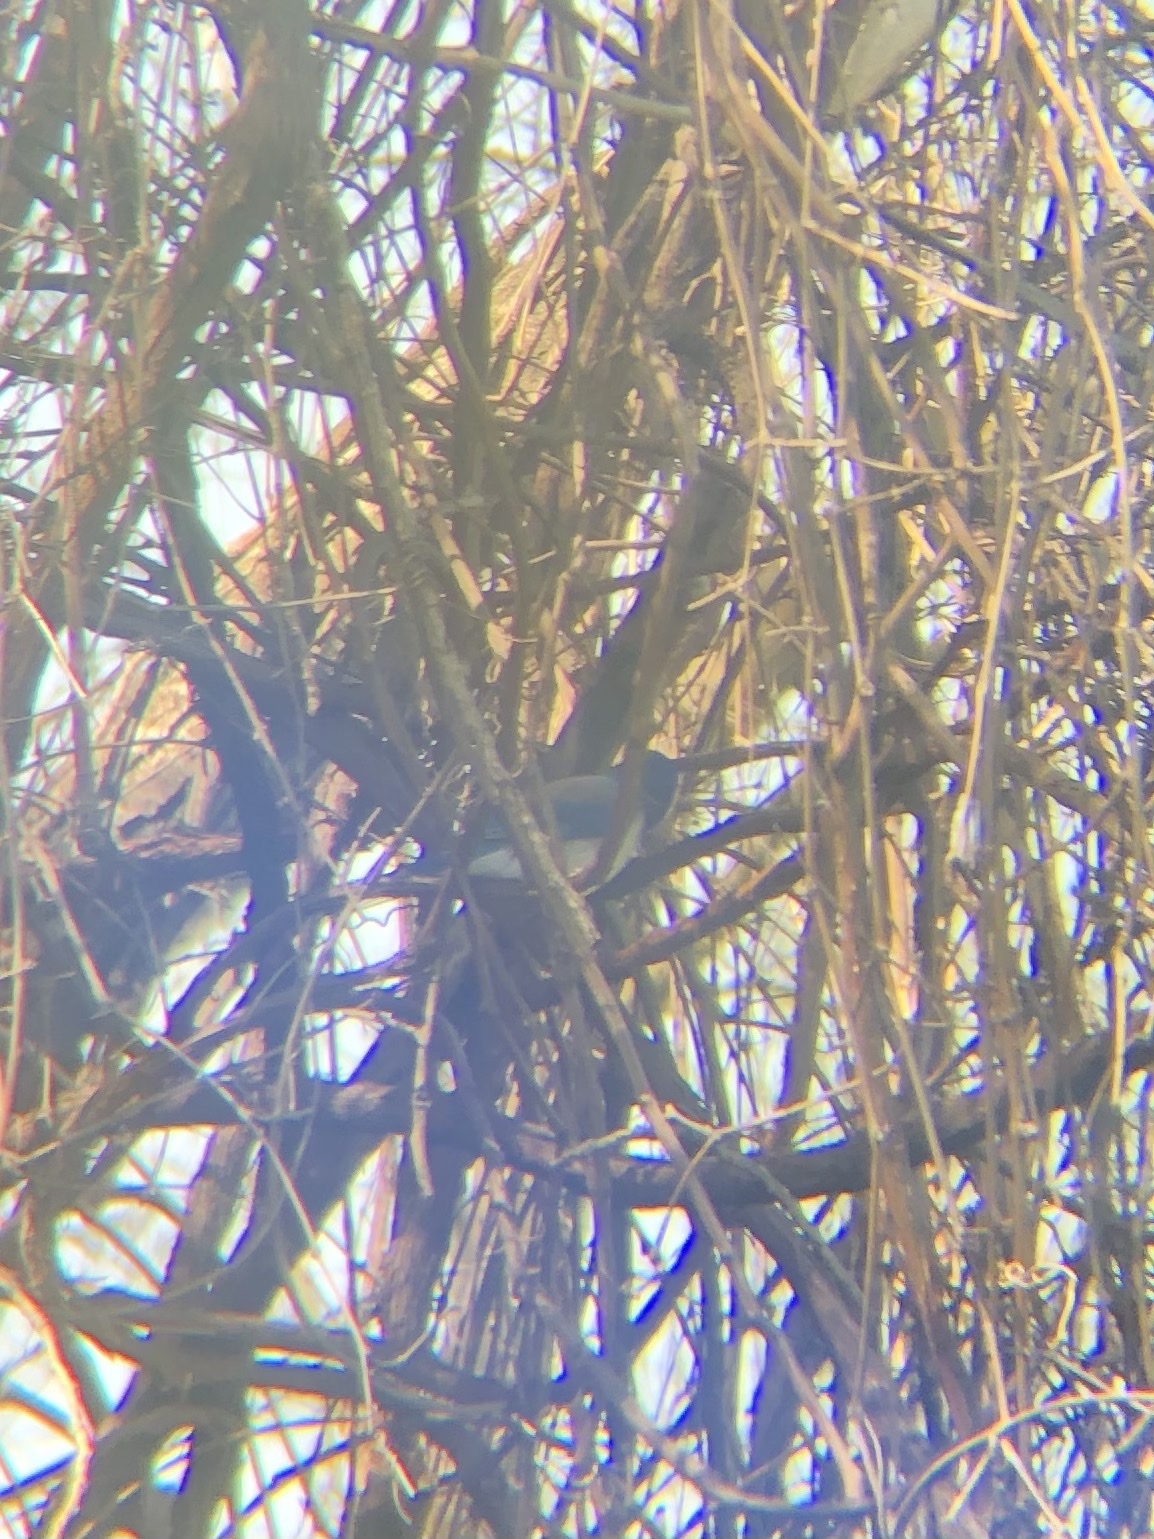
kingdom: Animalia
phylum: Chordata
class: Aves
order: Passeriformes
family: Corvidae
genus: Aphelocoma
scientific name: Aphelocoma californica
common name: California scrub-jay
